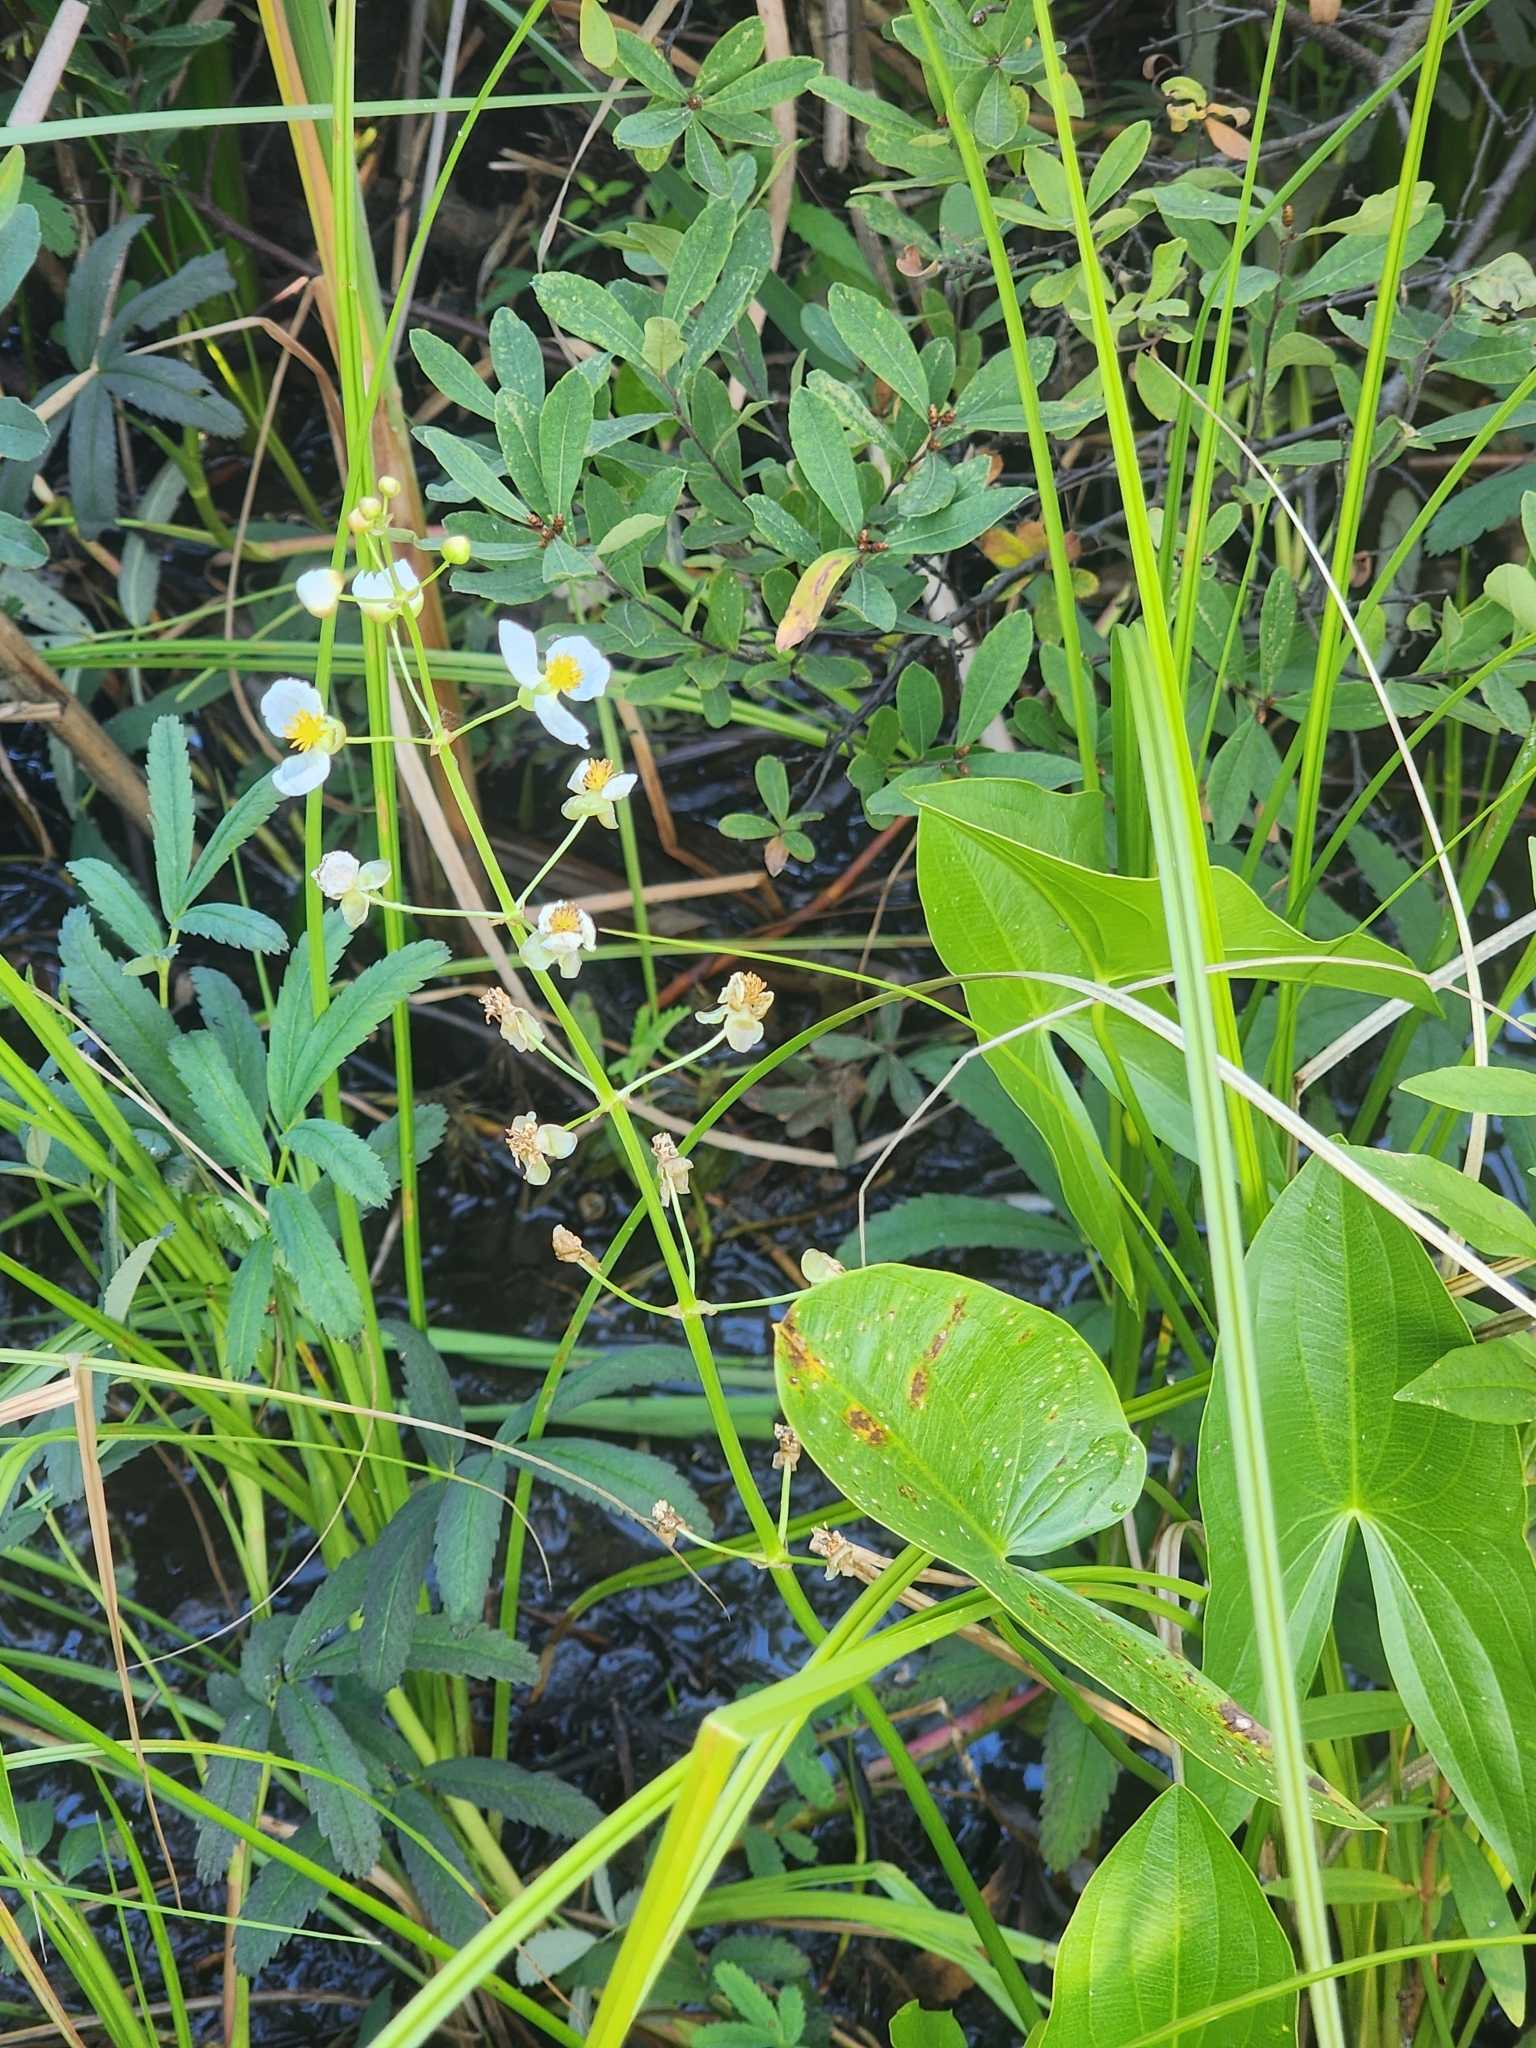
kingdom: Plantae
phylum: Tracheophyta
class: Liliopsida
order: Alismatales
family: Alismataceae
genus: Sagittaria
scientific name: Sagittaria latifolia
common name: Duck-potato
